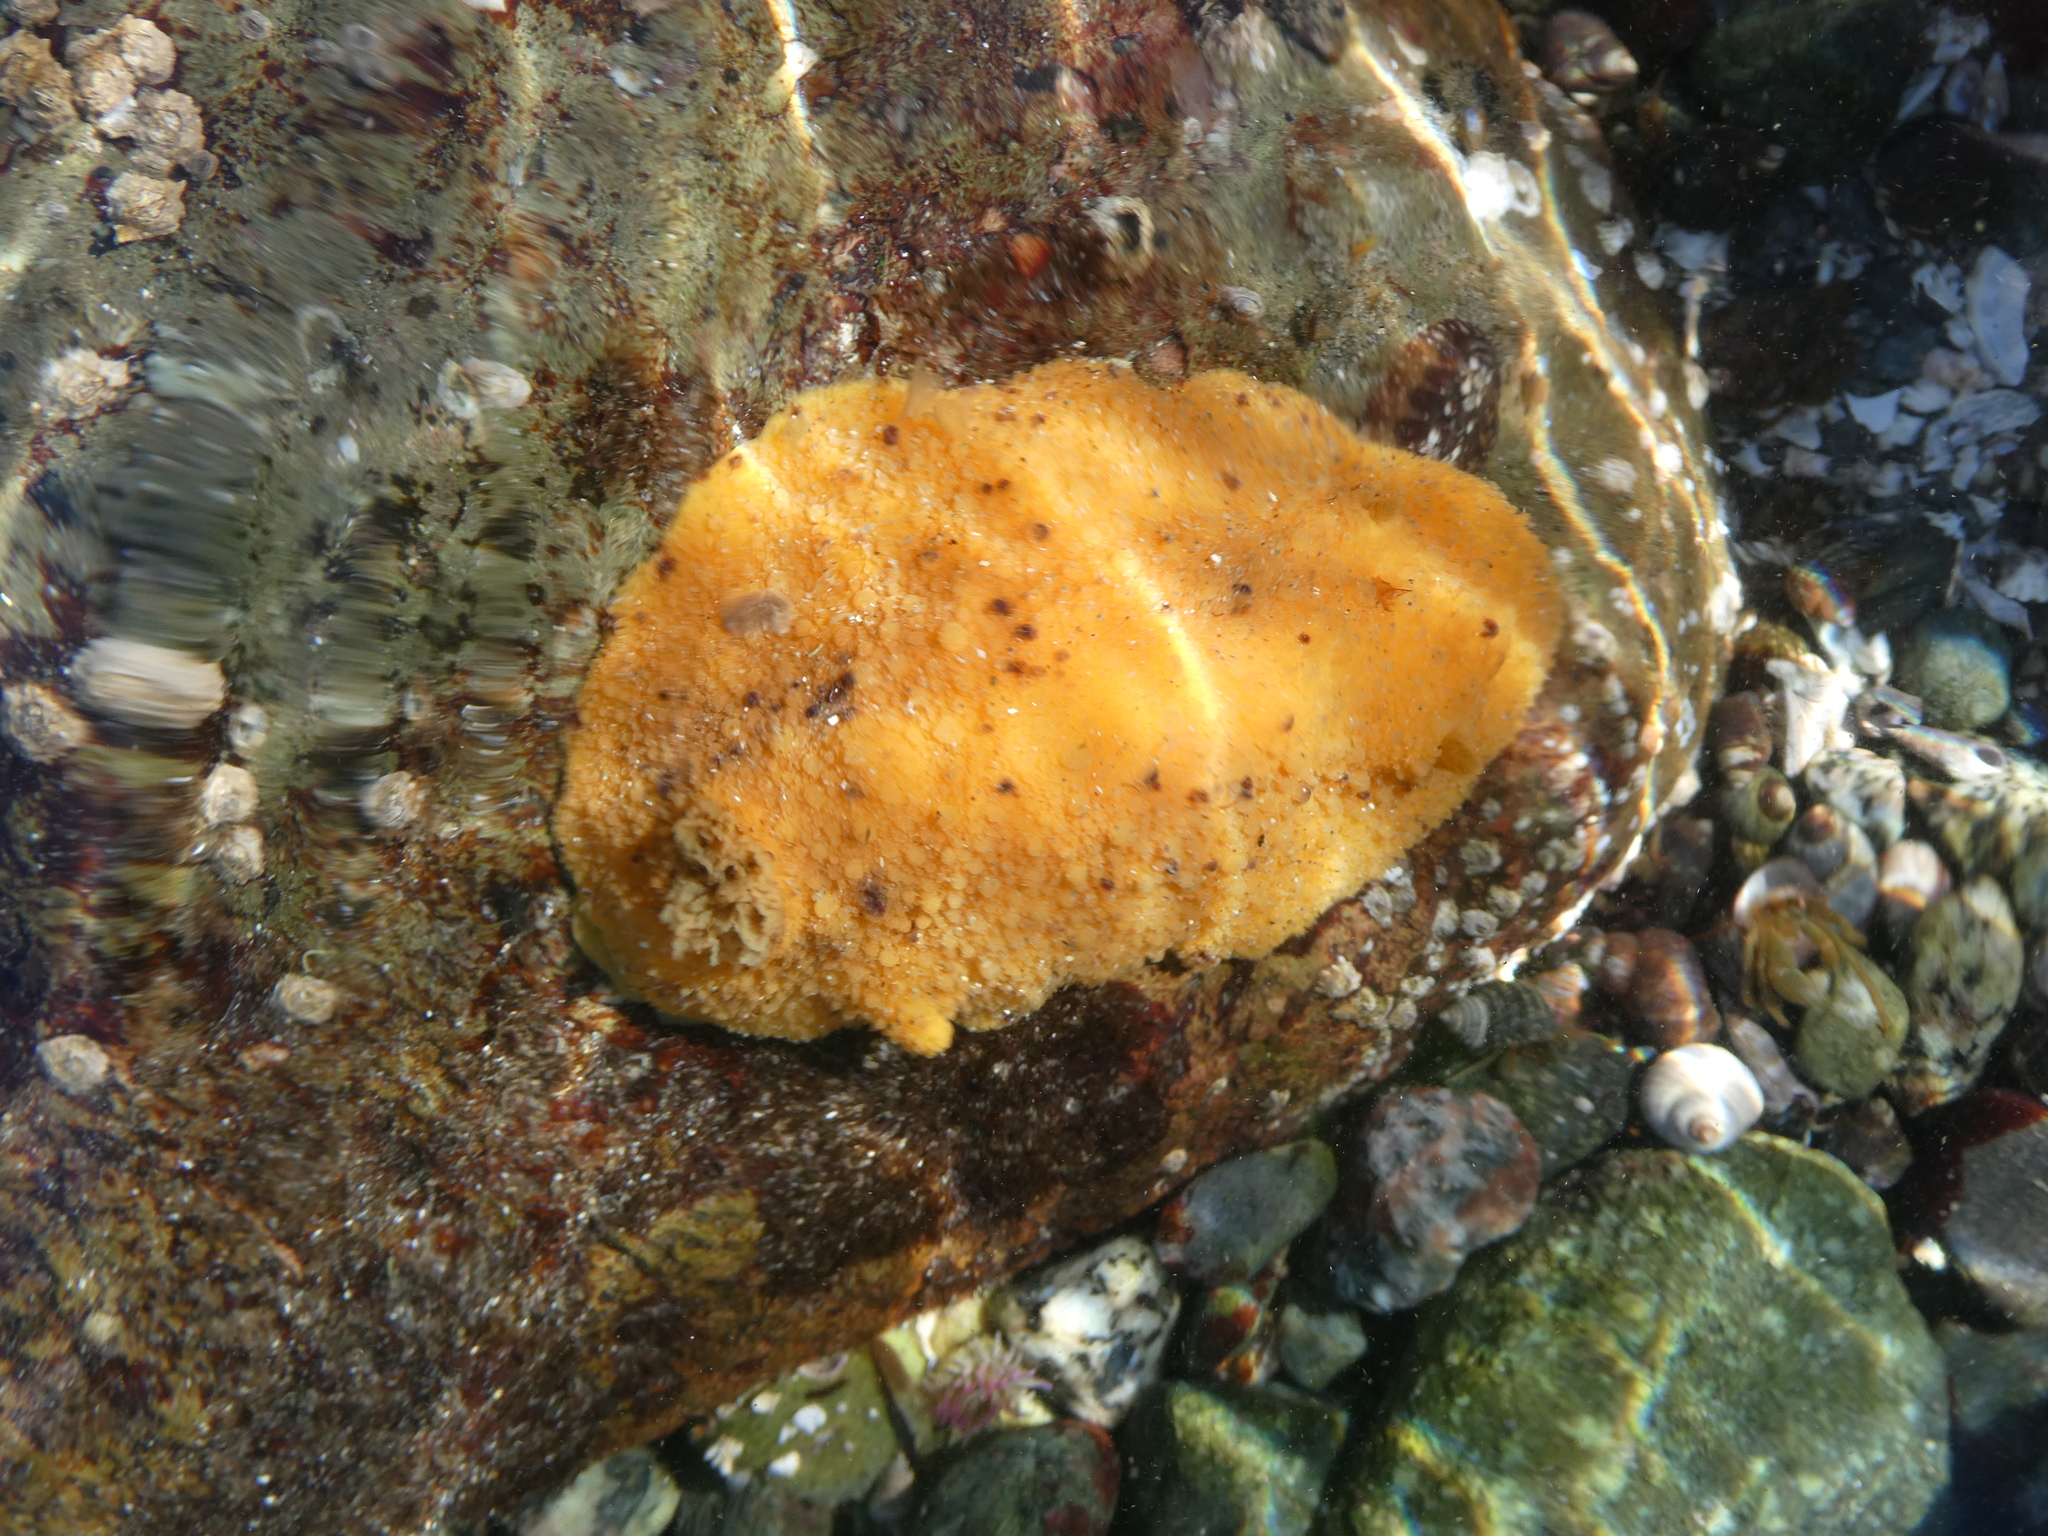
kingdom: Animalia
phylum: Mollusca
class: Gastropoda
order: Nudibranchia
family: Discodorididae
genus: Geitodoris
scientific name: Geitodoris heathi
